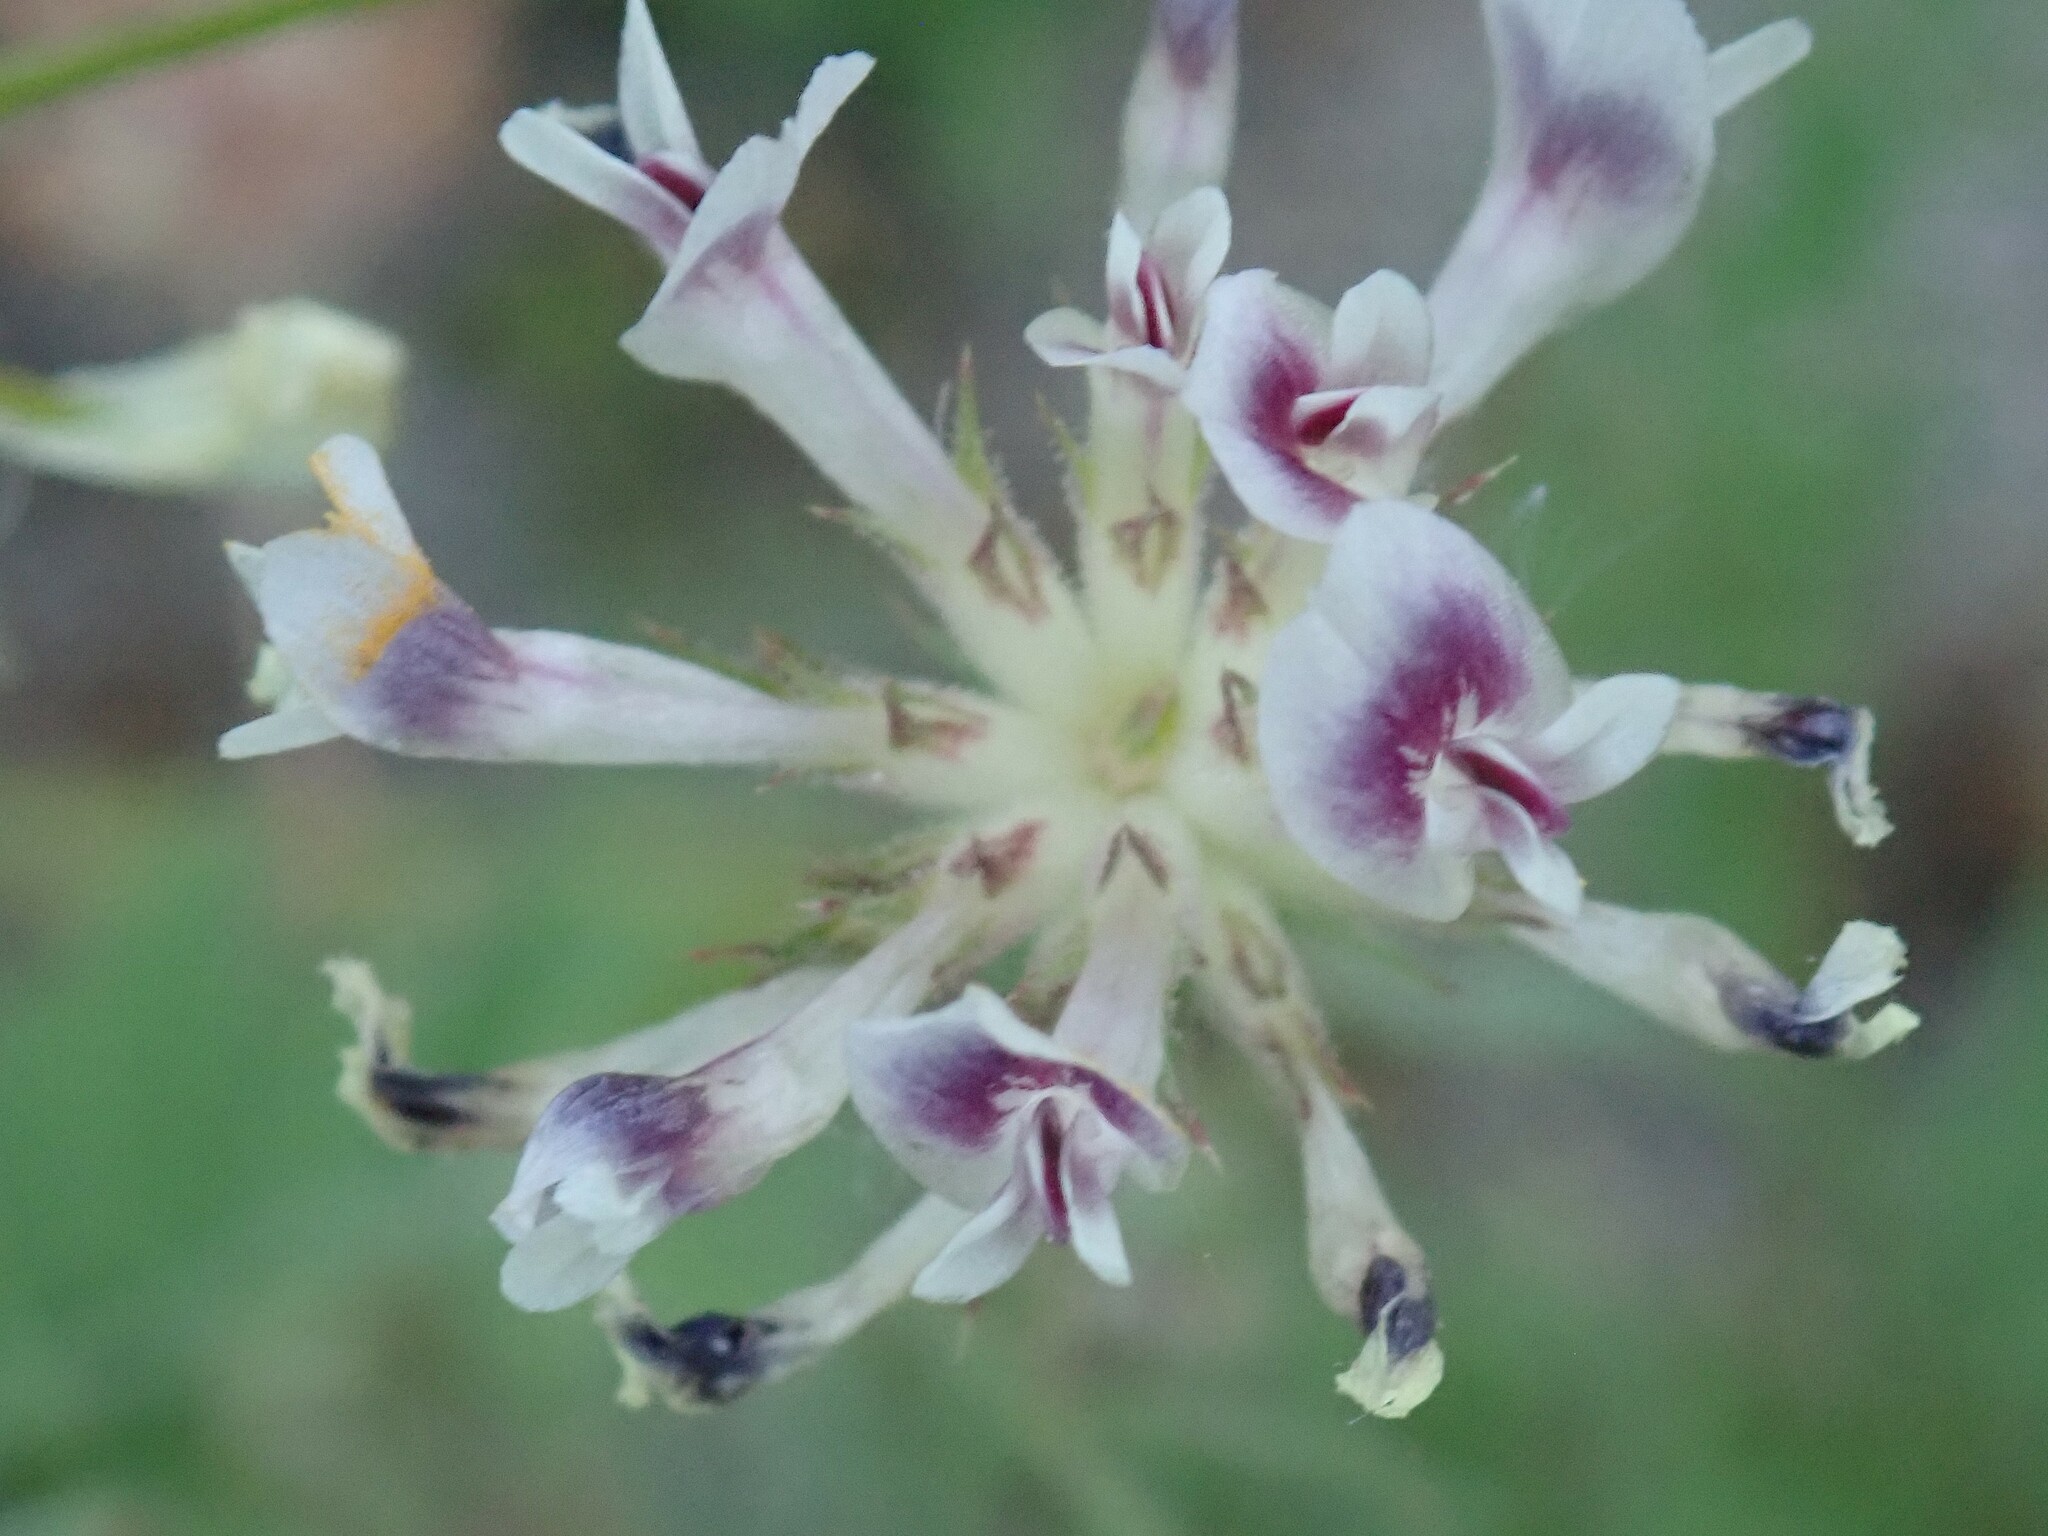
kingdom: Plantae
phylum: Tracheophyta
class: Magnoliopsida
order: Fabales
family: Fabaceae
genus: Trifolium
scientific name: Trifolium obtusiflorum
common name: Clammy clover
